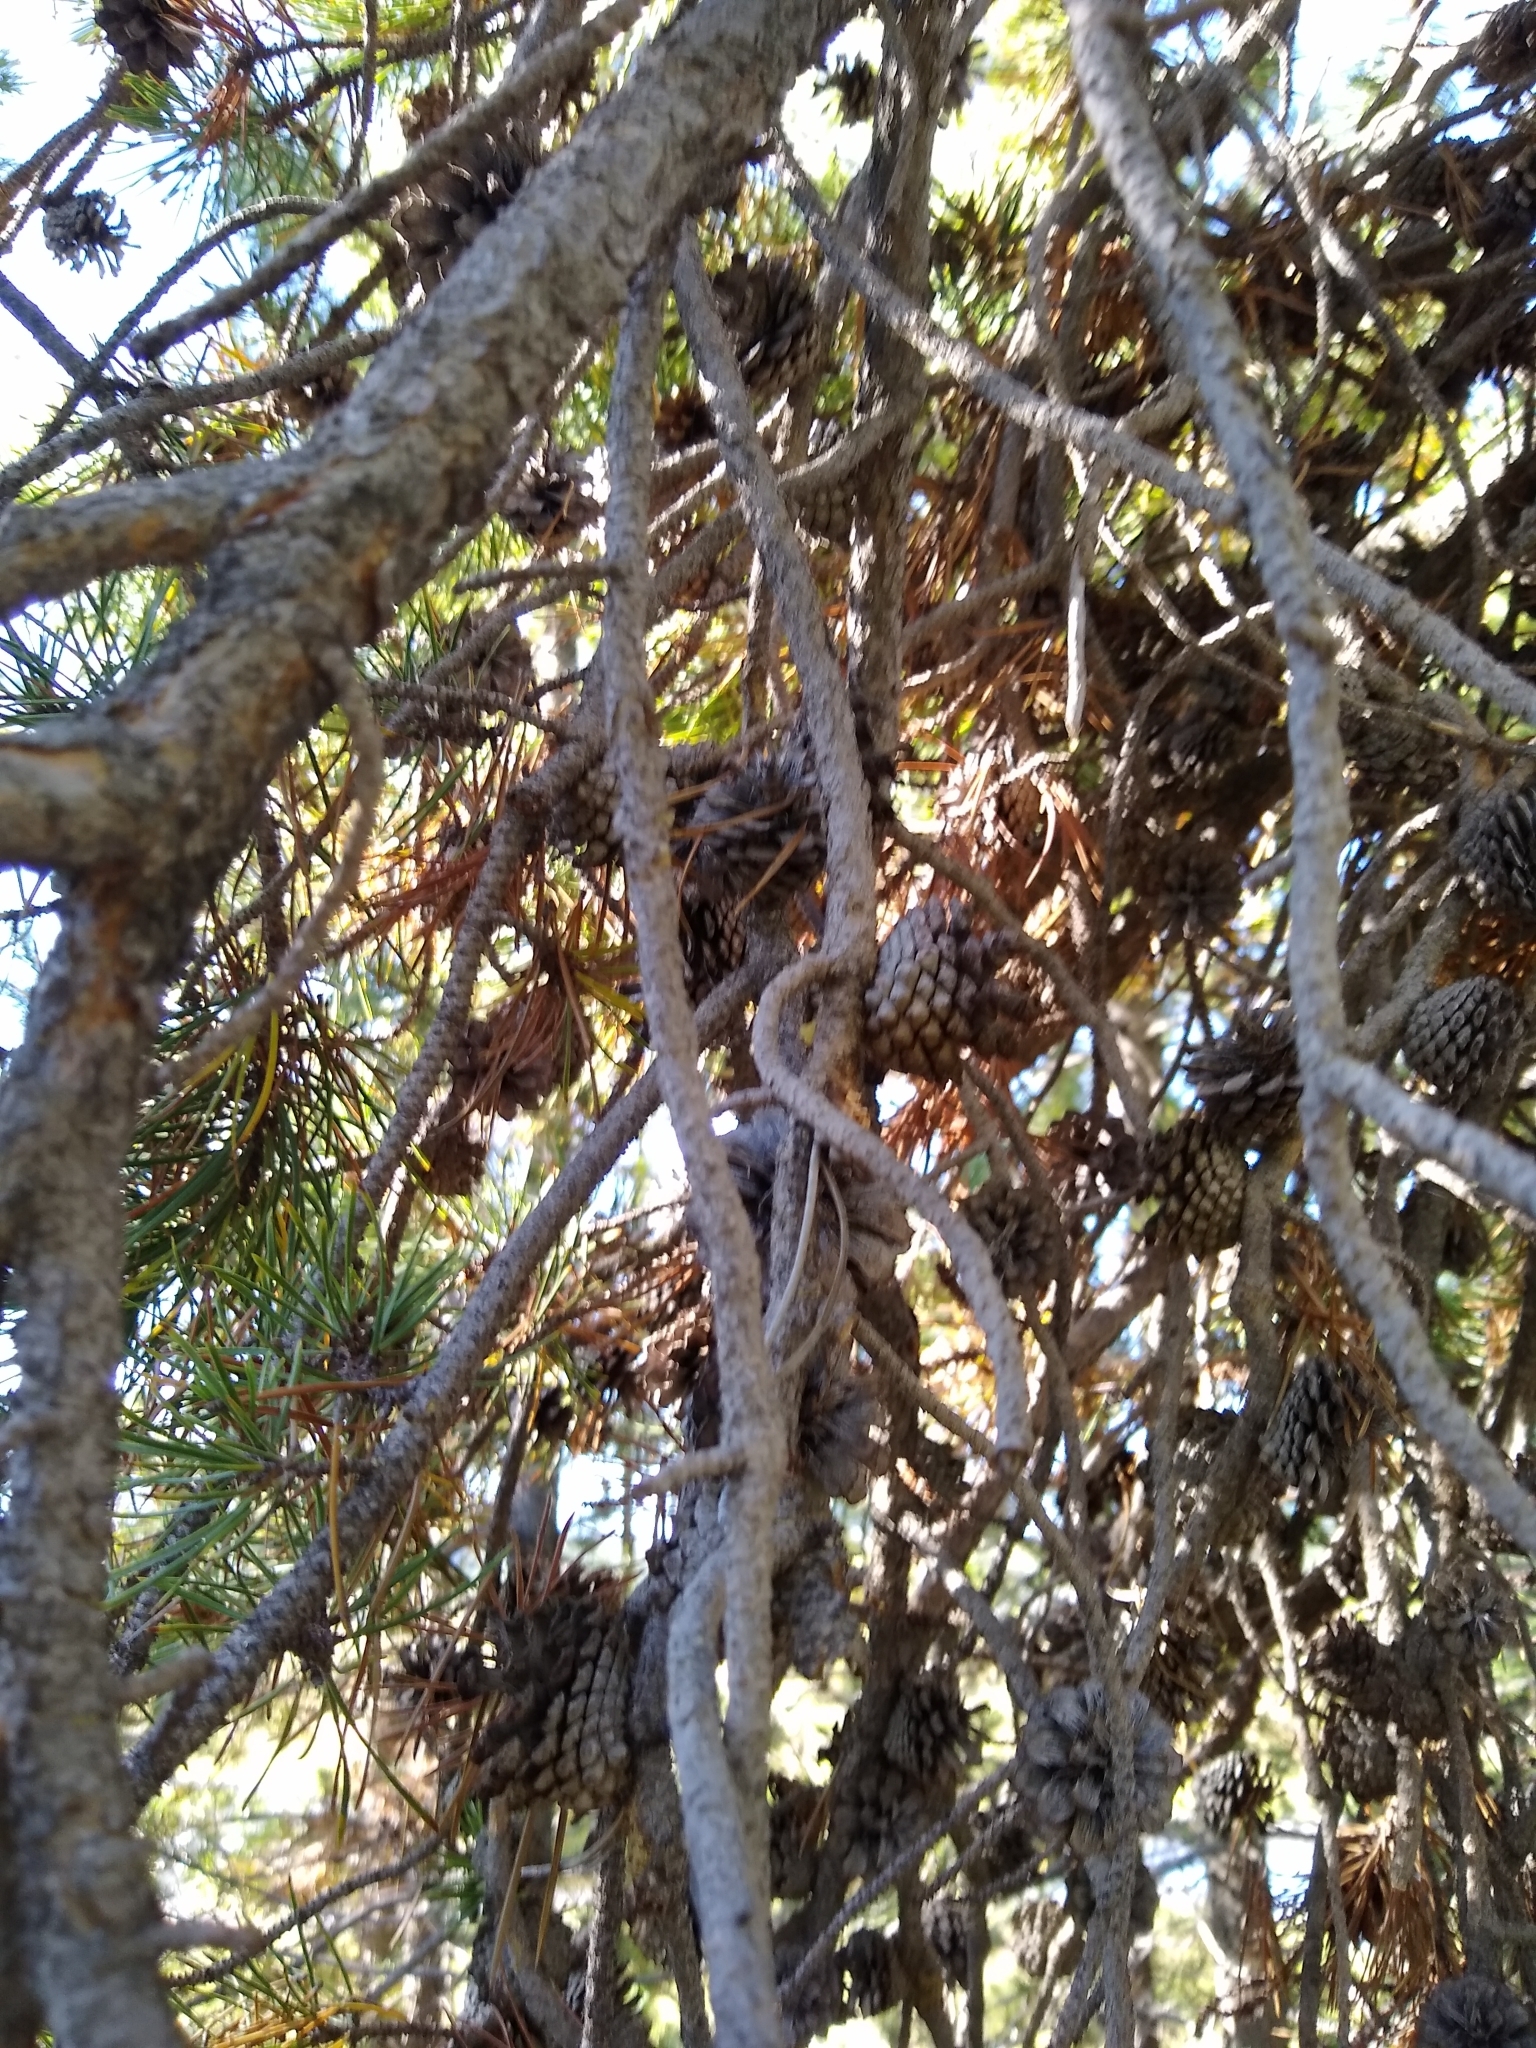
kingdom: Plantae
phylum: Tracheophyta
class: Pinopsida
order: Pinales
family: Pinaceae
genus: Pinus
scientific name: Pinus contorta
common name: Lodgepole pine
